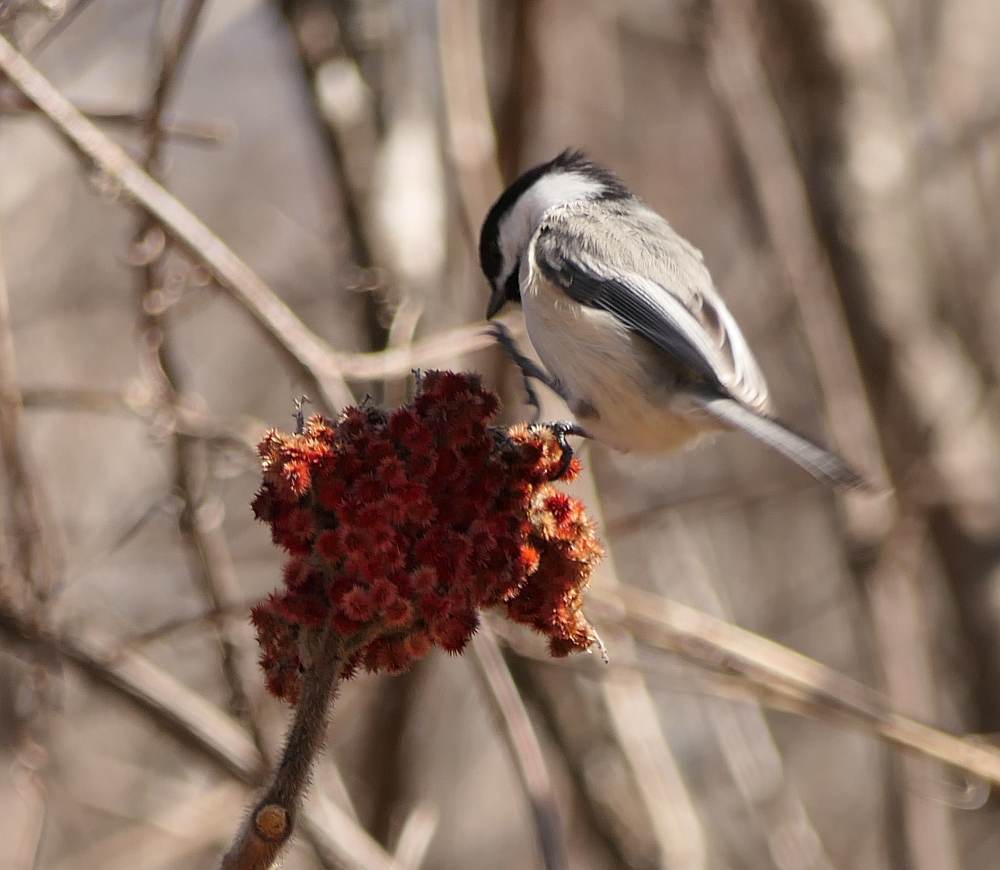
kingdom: Animalia
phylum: Chordata
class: Aves
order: Passeriformes
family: Paridae
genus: Poecile
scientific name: Poecile atricapillus
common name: Black-capped chickadee
